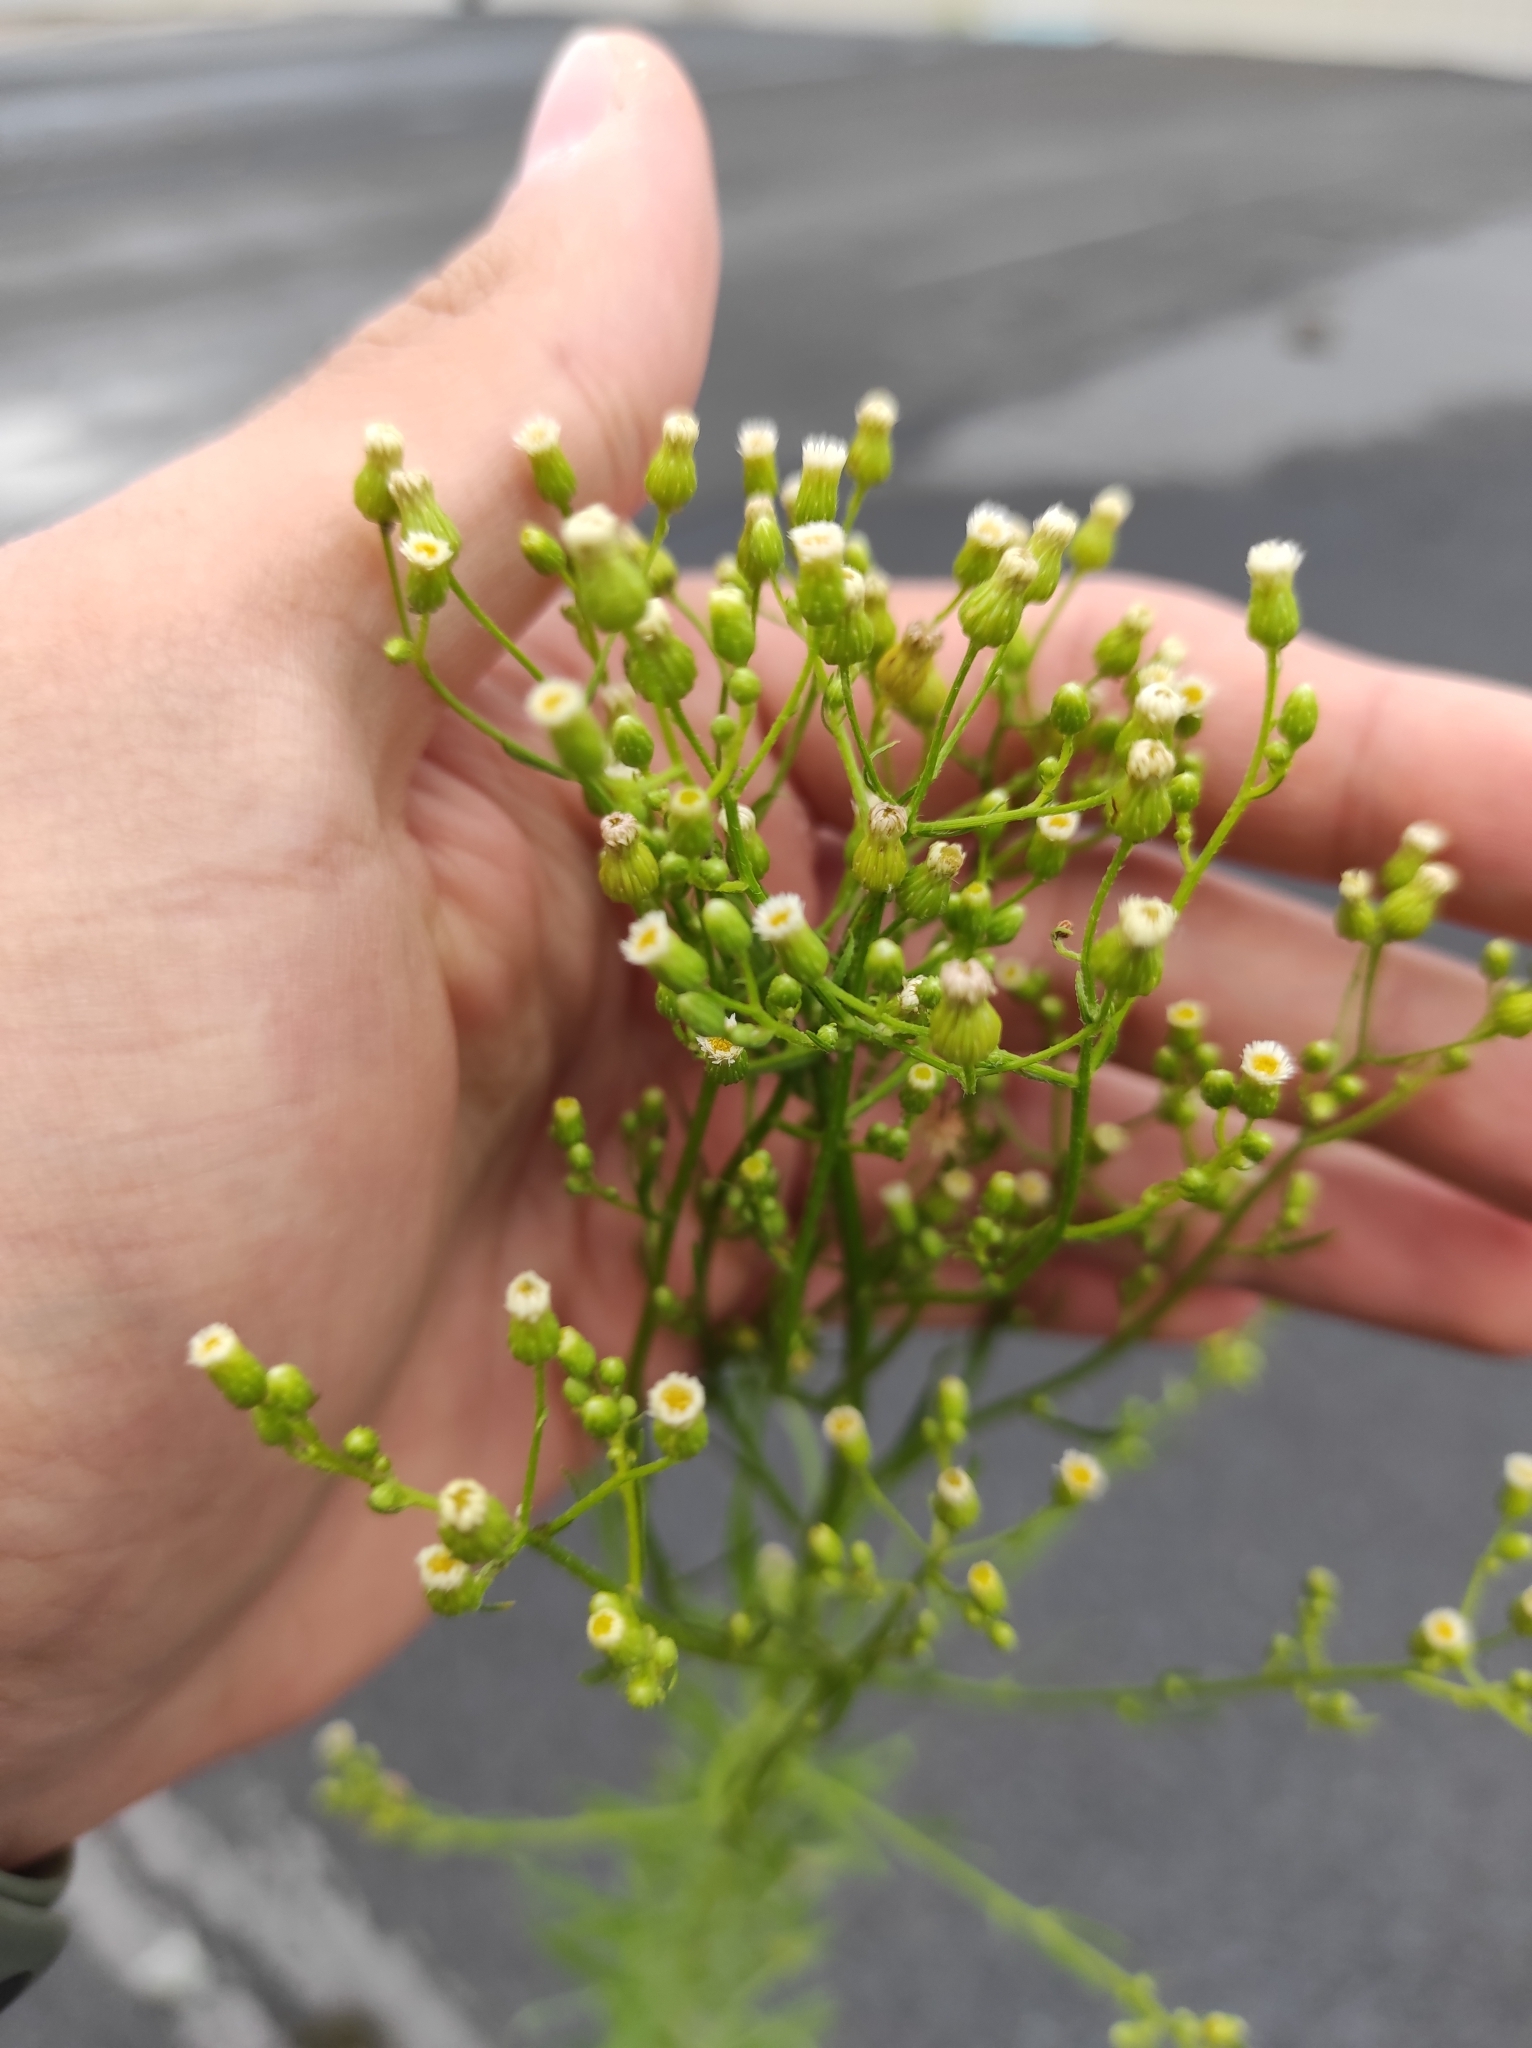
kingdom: Plantae
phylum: Tracheophyta
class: Magnoliopsida
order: Asterales
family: Asteraceae
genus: Erigeron
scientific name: Erigeron canadensis
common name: Canadian fleabane
